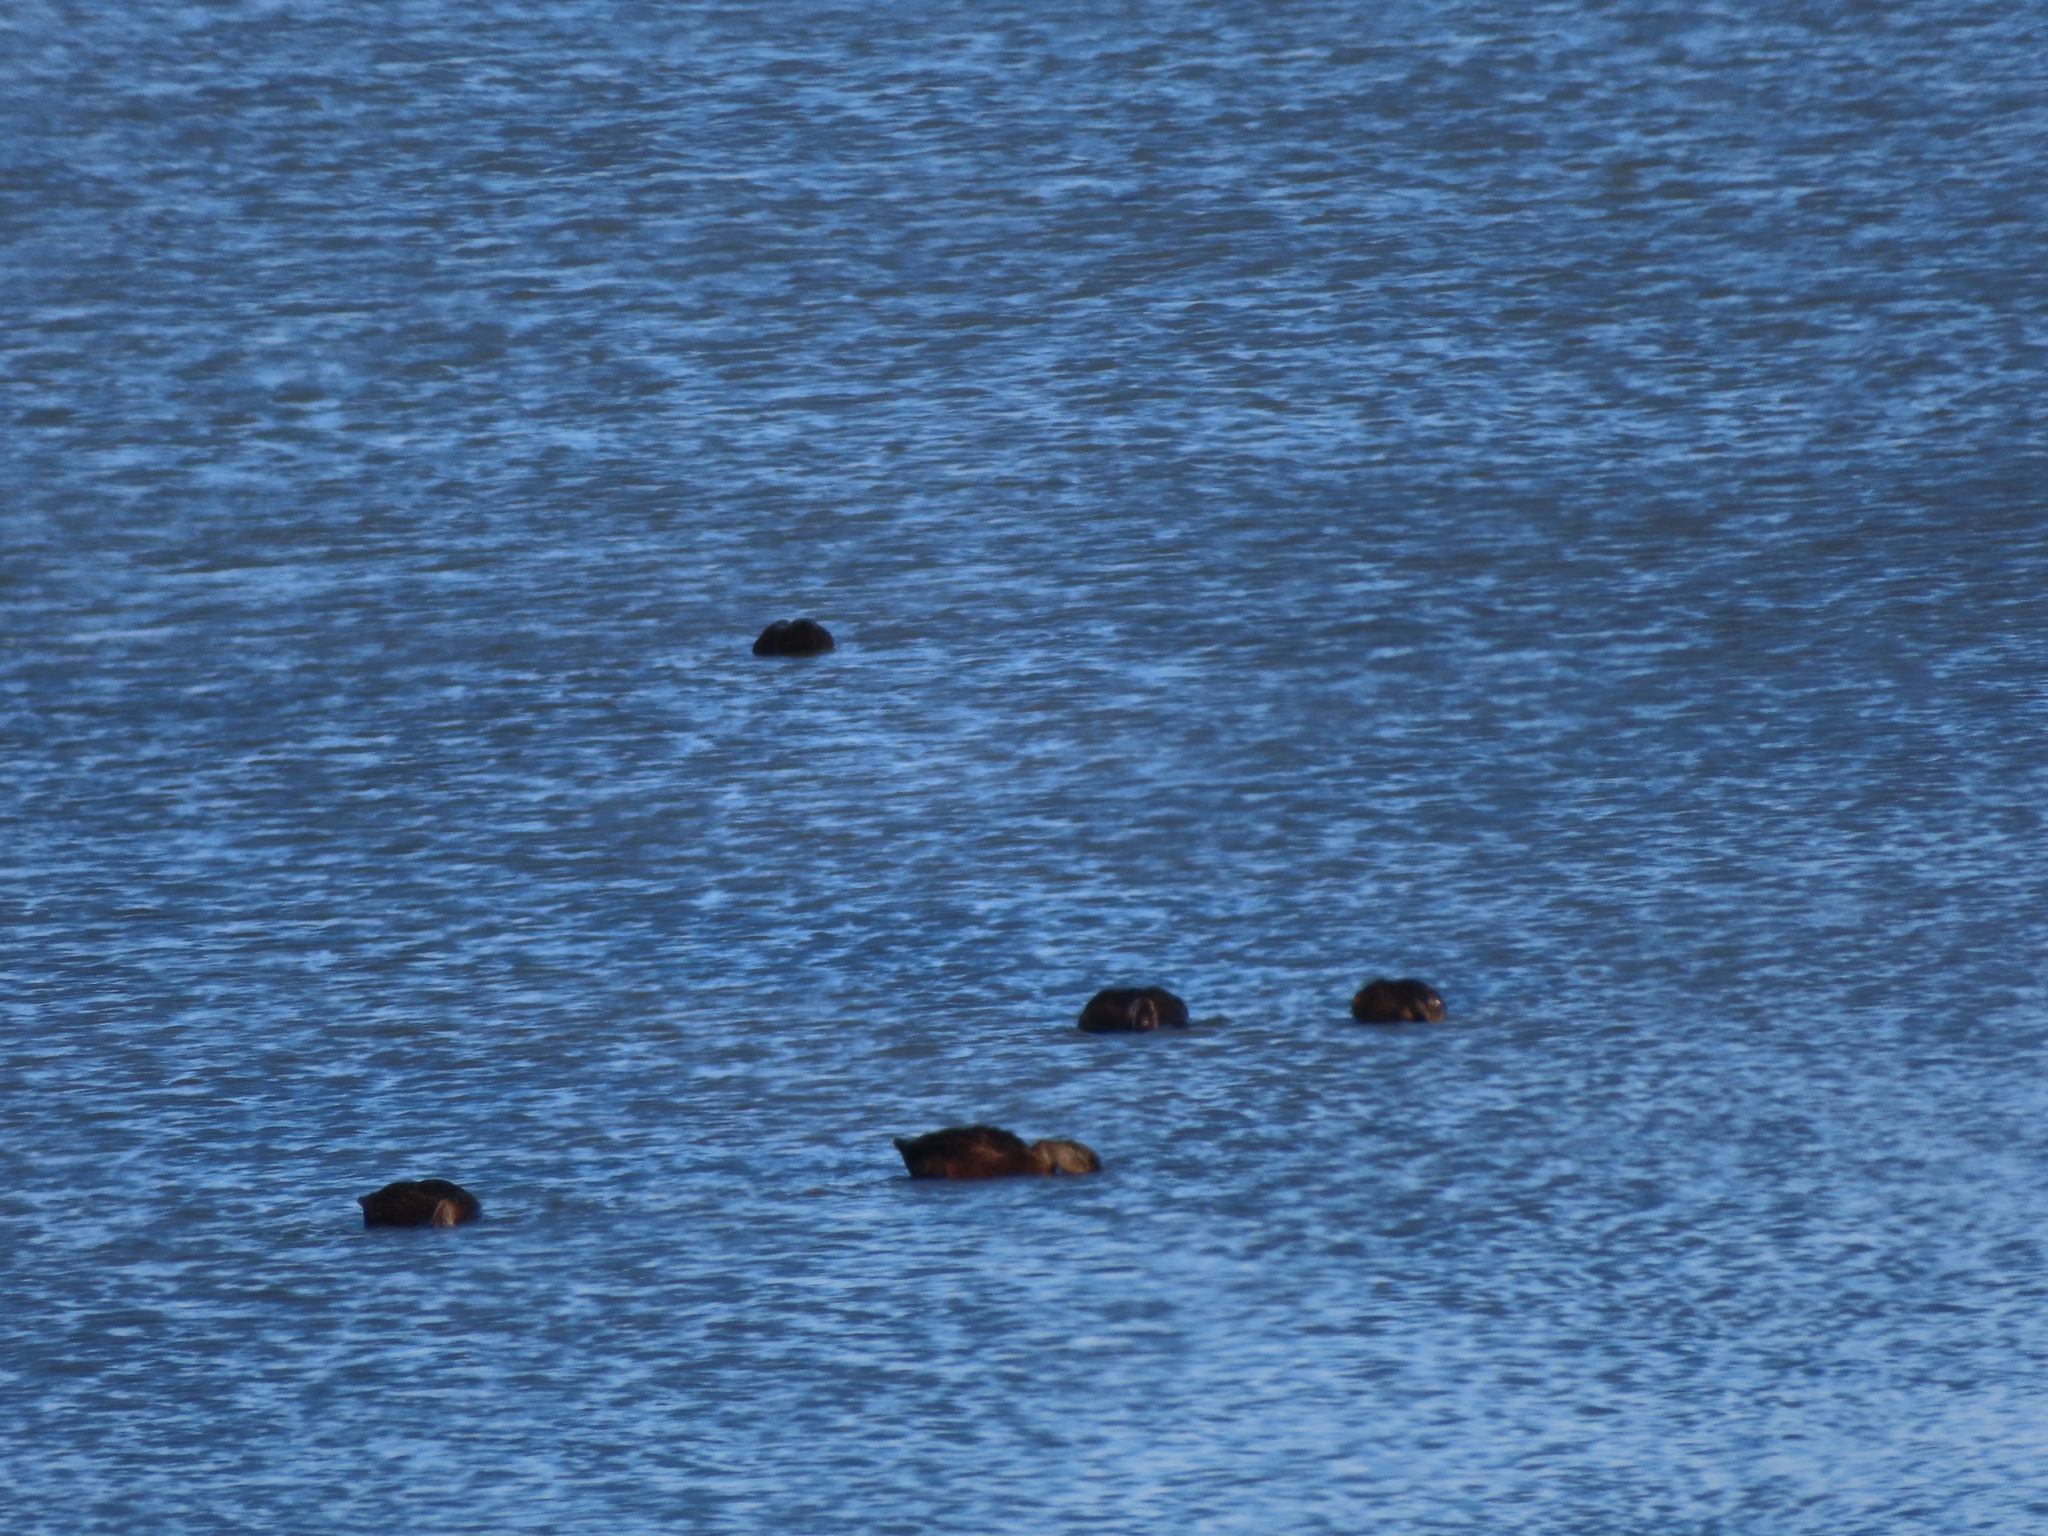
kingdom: Animalia
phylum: Chordata
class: Aves
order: Anseriformes
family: Anatidae
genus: Anas
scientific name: Anas rubripes
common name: American black duck
